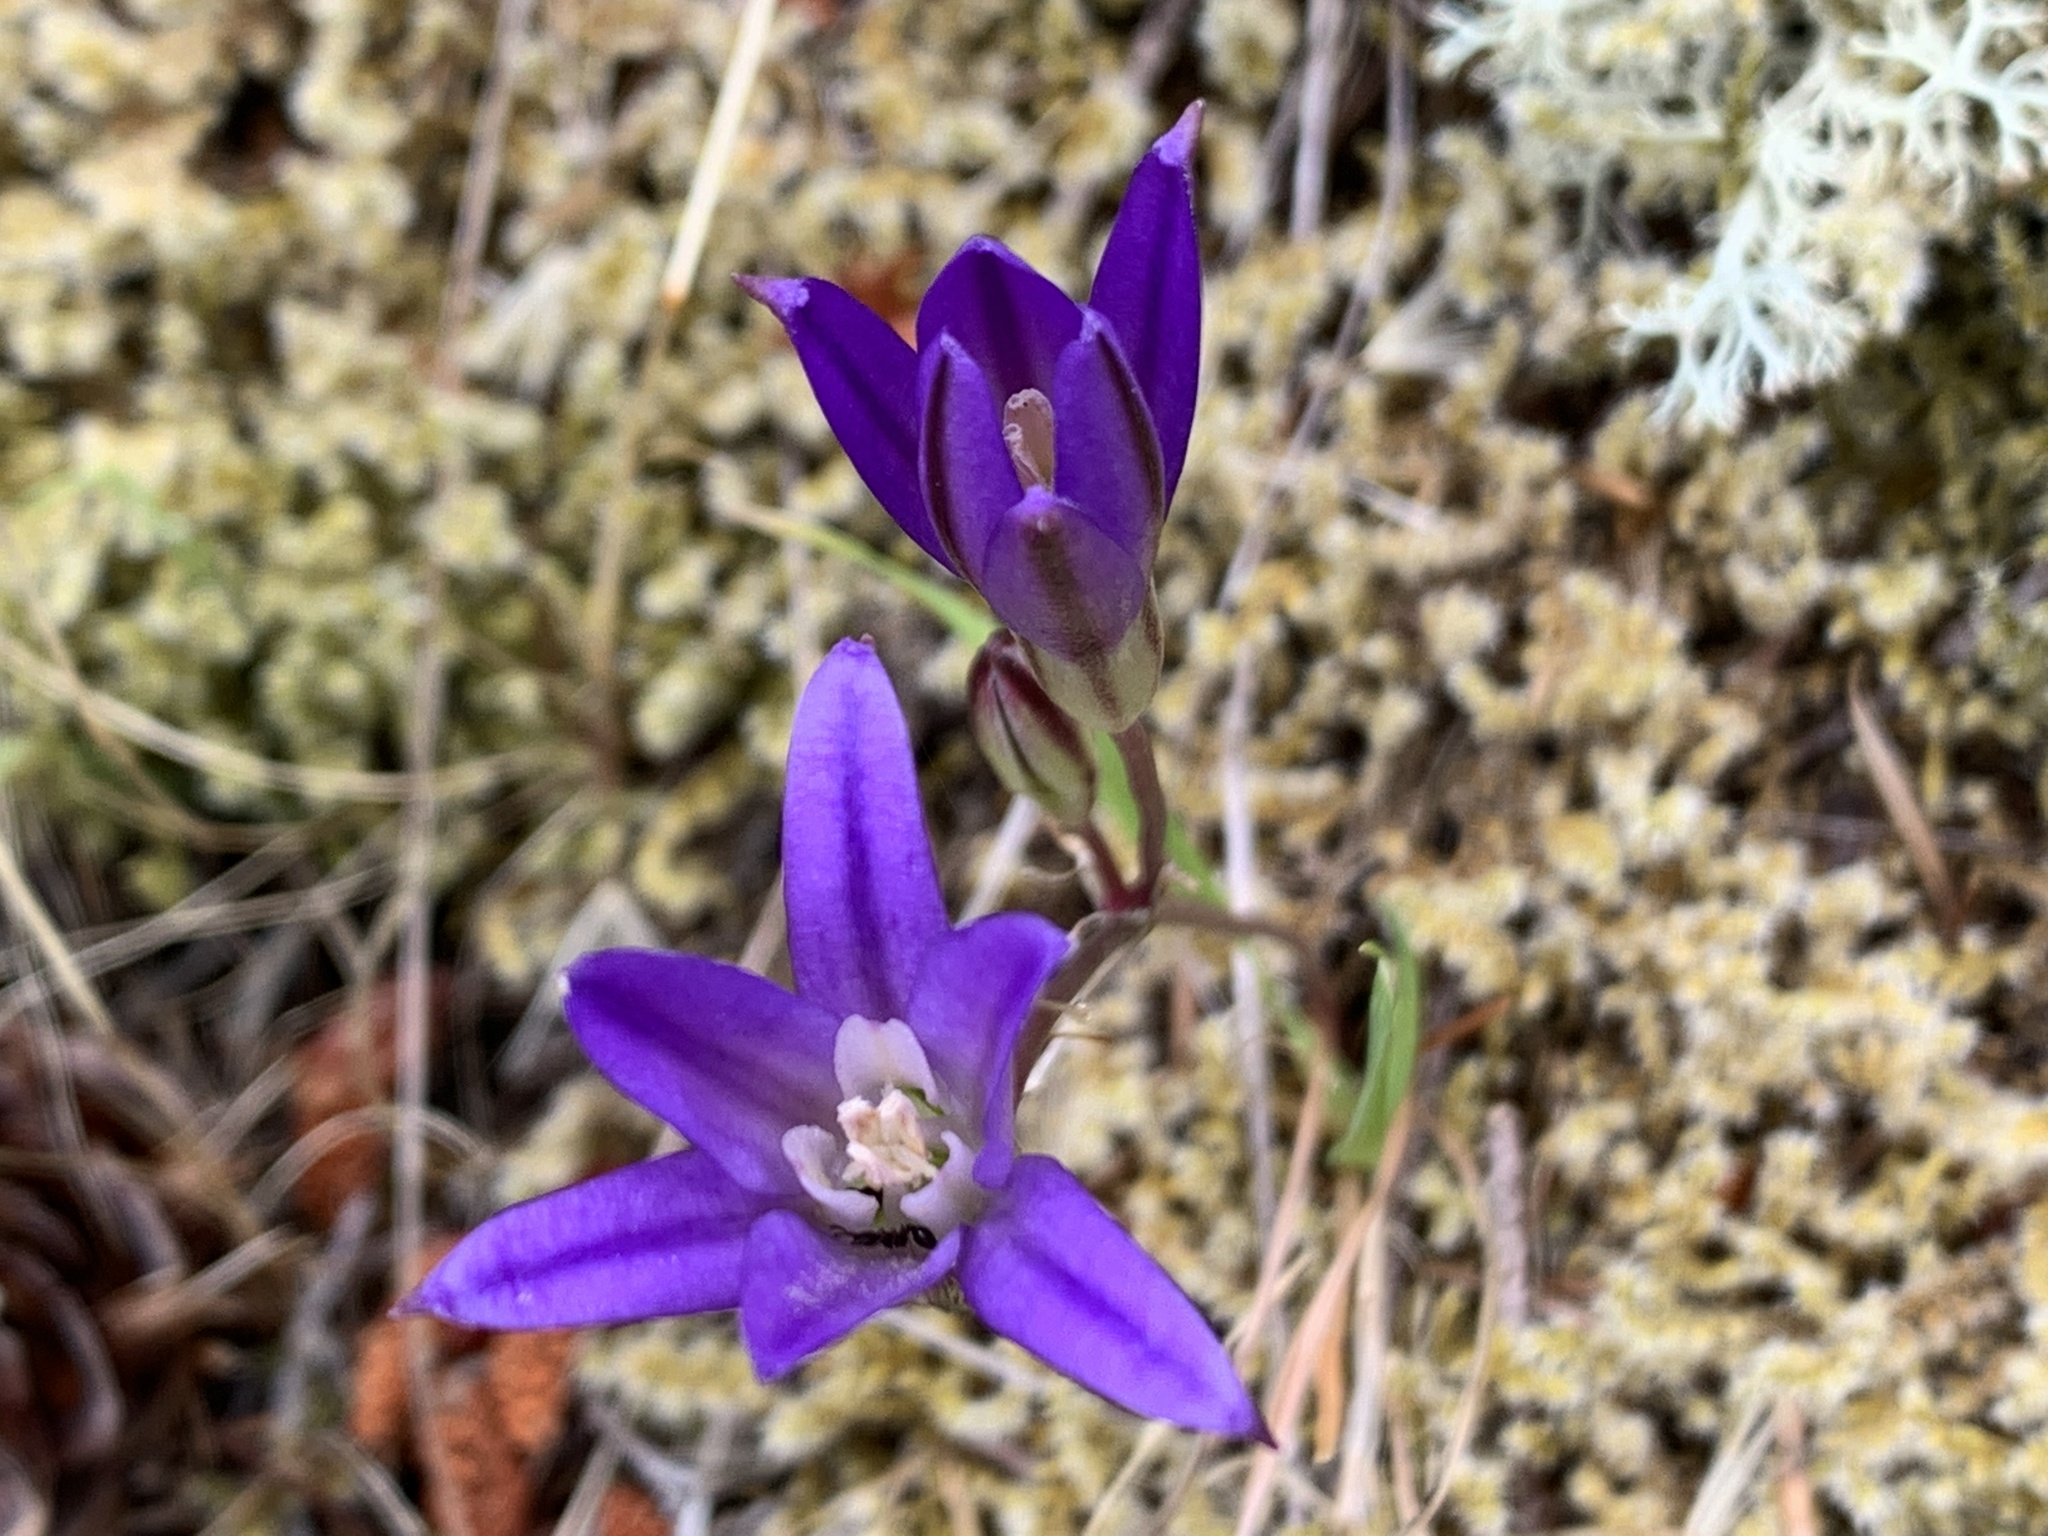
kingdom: Plantae
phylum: Tracheophyta
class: Liliopsida
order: Asparagales
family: Asparagaceae
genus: Brodiaea
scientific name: Brodiaea coronaria
